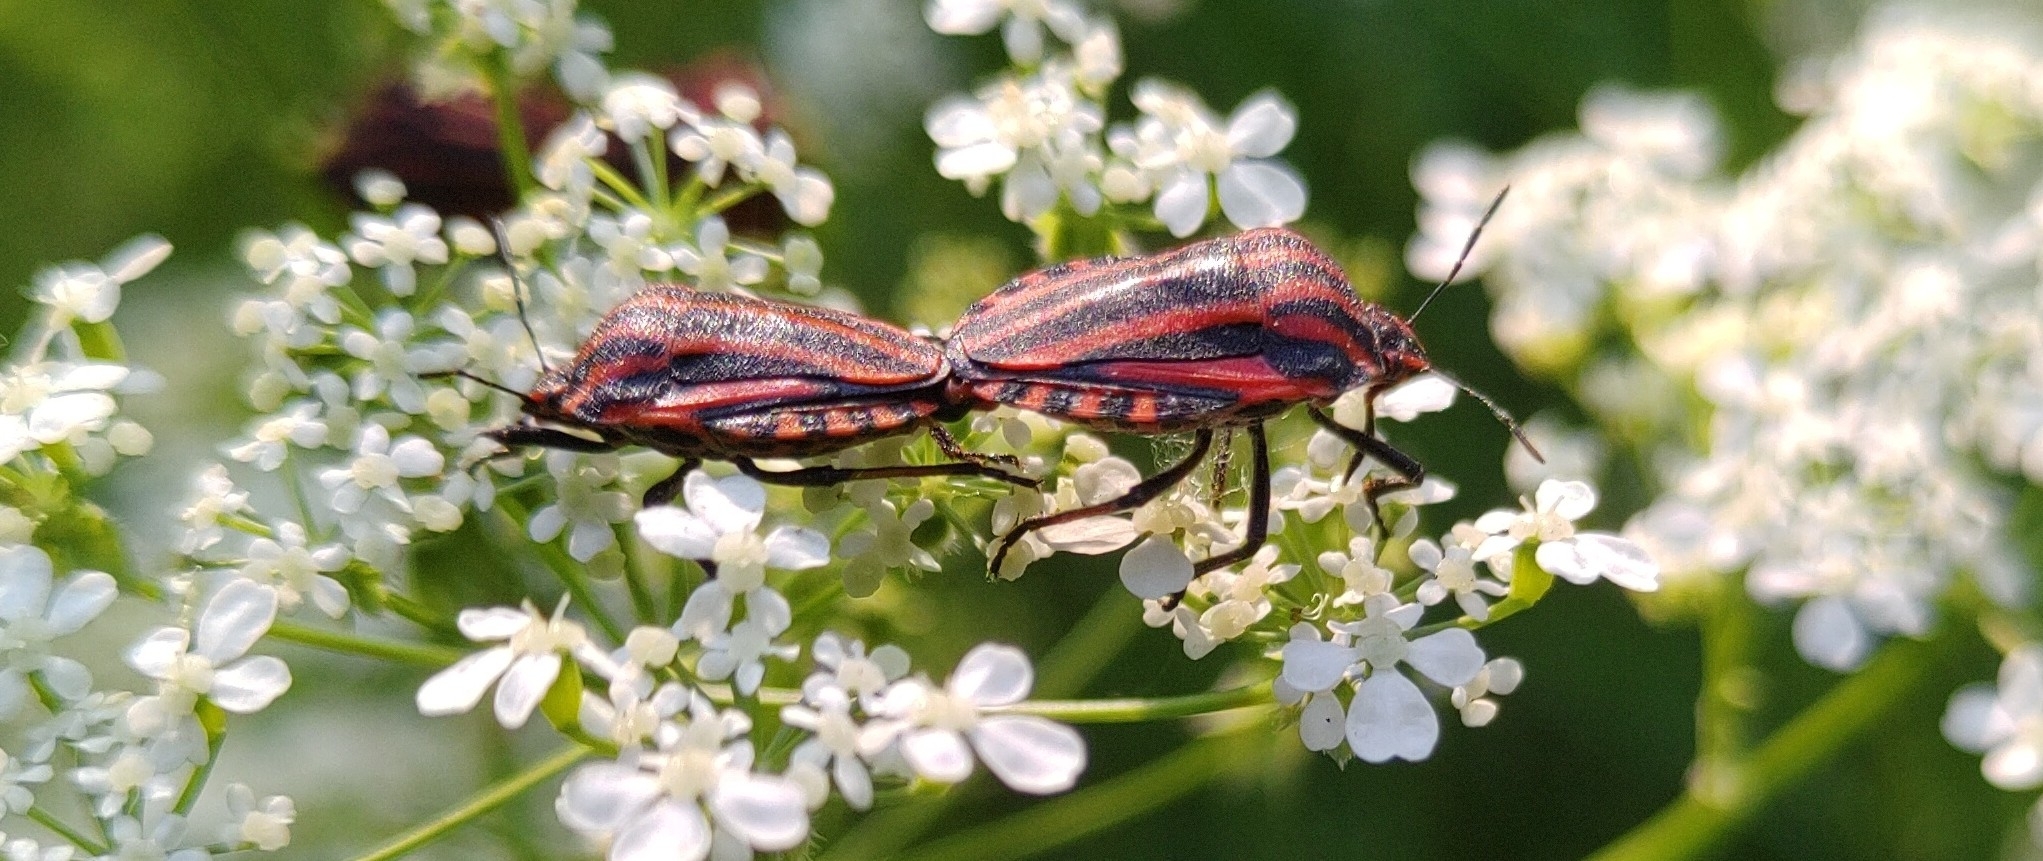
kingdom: Animalia
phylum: Arthropoda
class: Insecta
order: Hemiptera
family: Pentatomidae
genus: Graphosoma
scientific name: Graphosoma italicum
